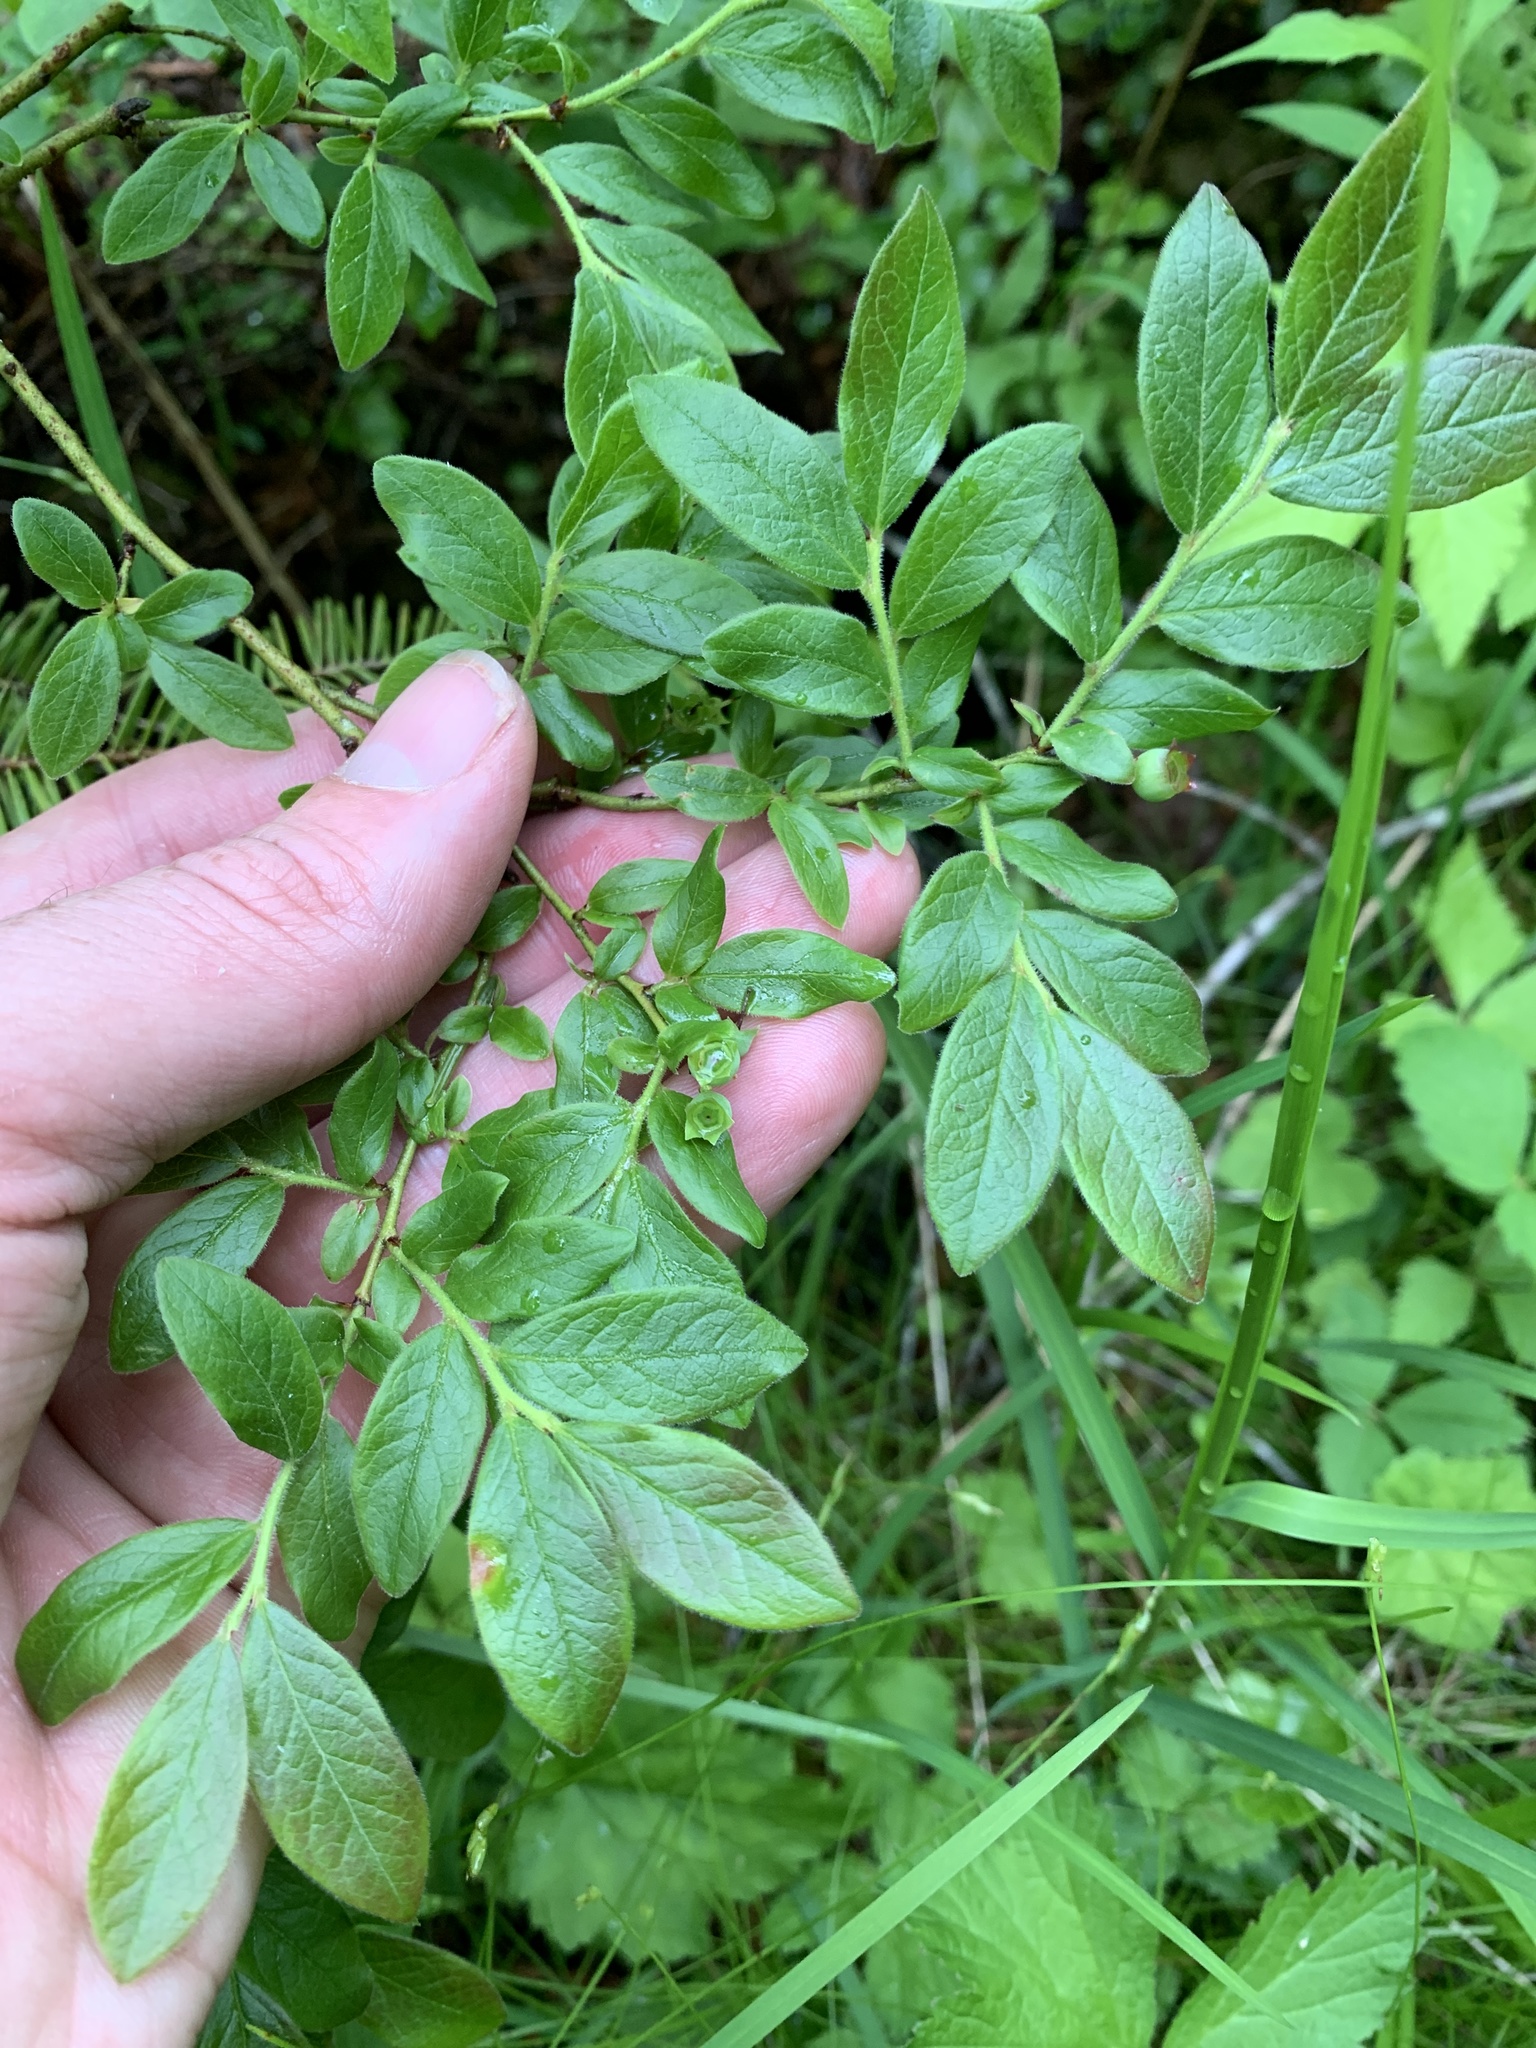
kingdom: Plantae
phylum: Tracheophyta
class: Magnoliopsida
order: Ericales
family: Ericaceae
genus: Vaccinium
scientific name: Vaccinium myrtilloides
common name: Canada blueberry
